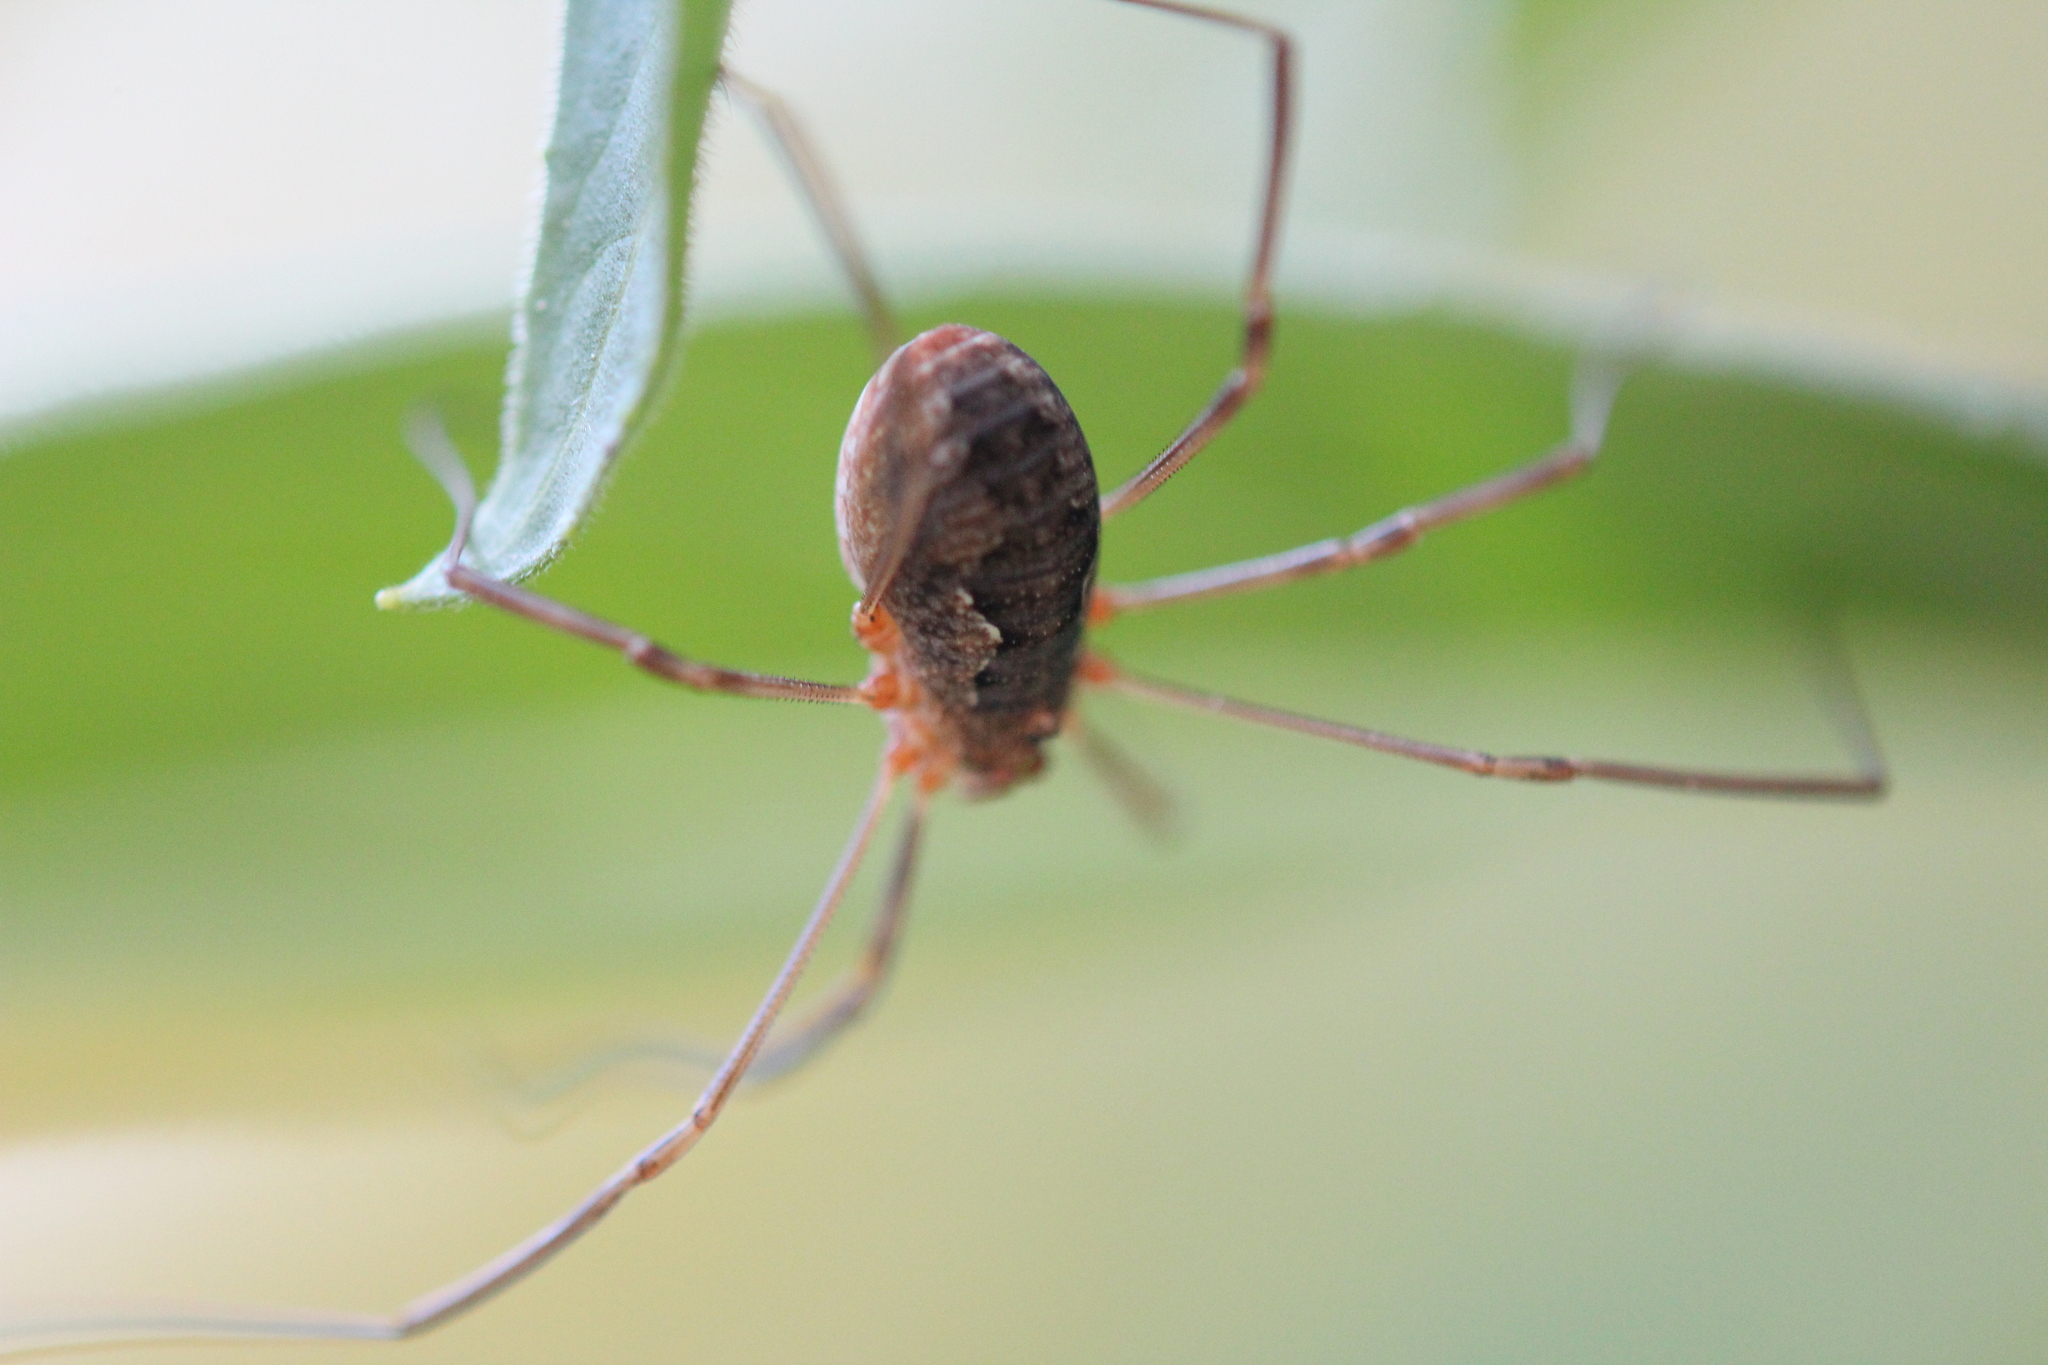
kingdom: Animalia
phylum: Arthropoda
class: Arachnida
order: Opiliones
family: Phalangiidae
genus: Phalangium
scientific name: Phalangium opilio
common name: Daddy longleg
